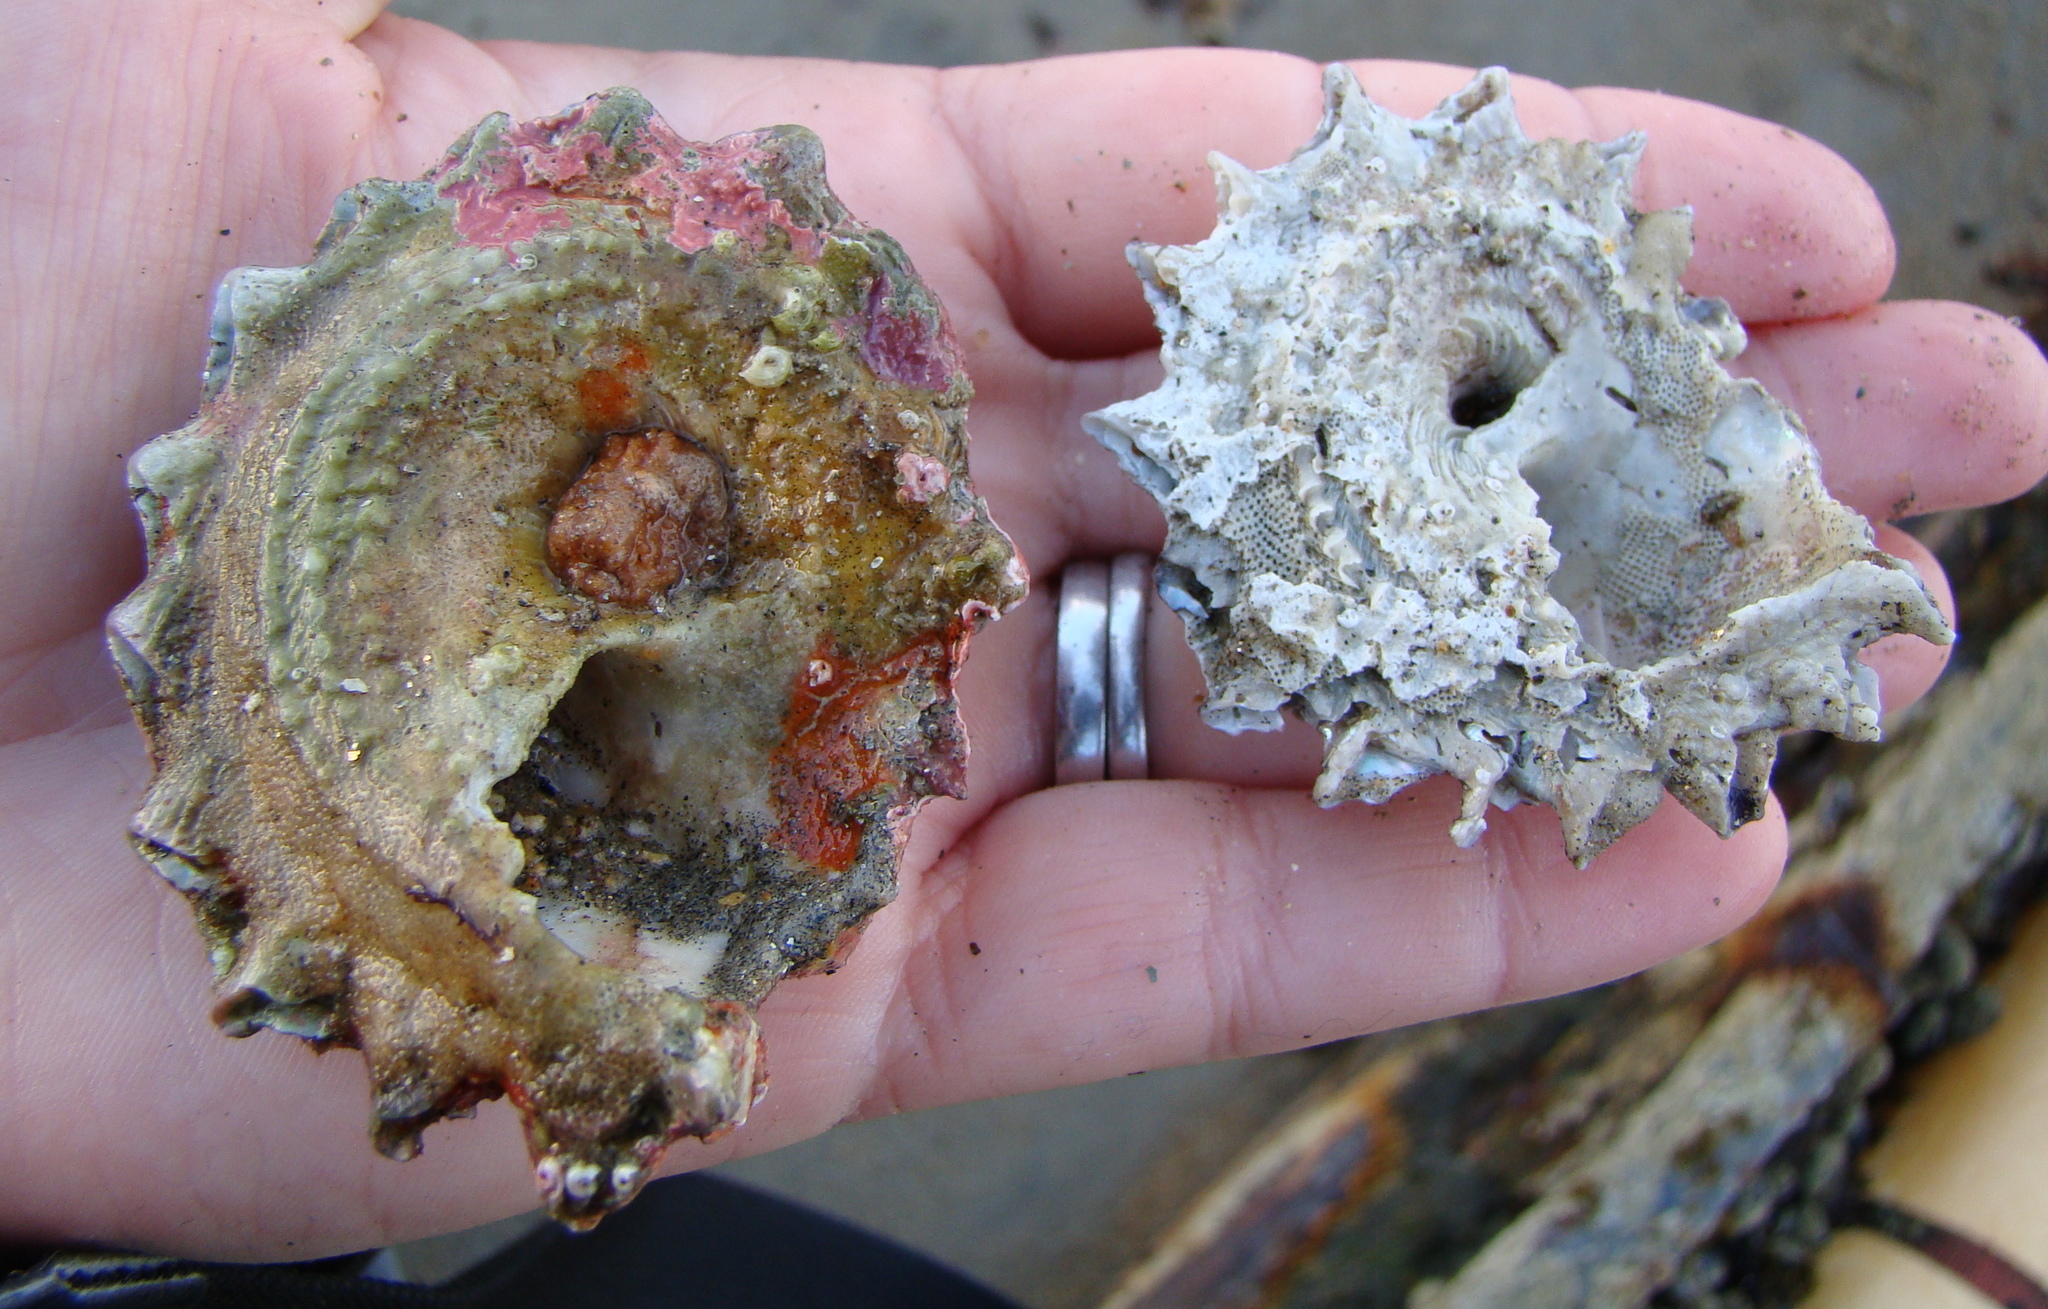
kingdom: Animalia
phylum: Mollusca
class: Gastropoda
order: Trochida
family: Turbinidae
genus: Astraea
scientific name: Astraea heliotropium
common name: Sun shell
